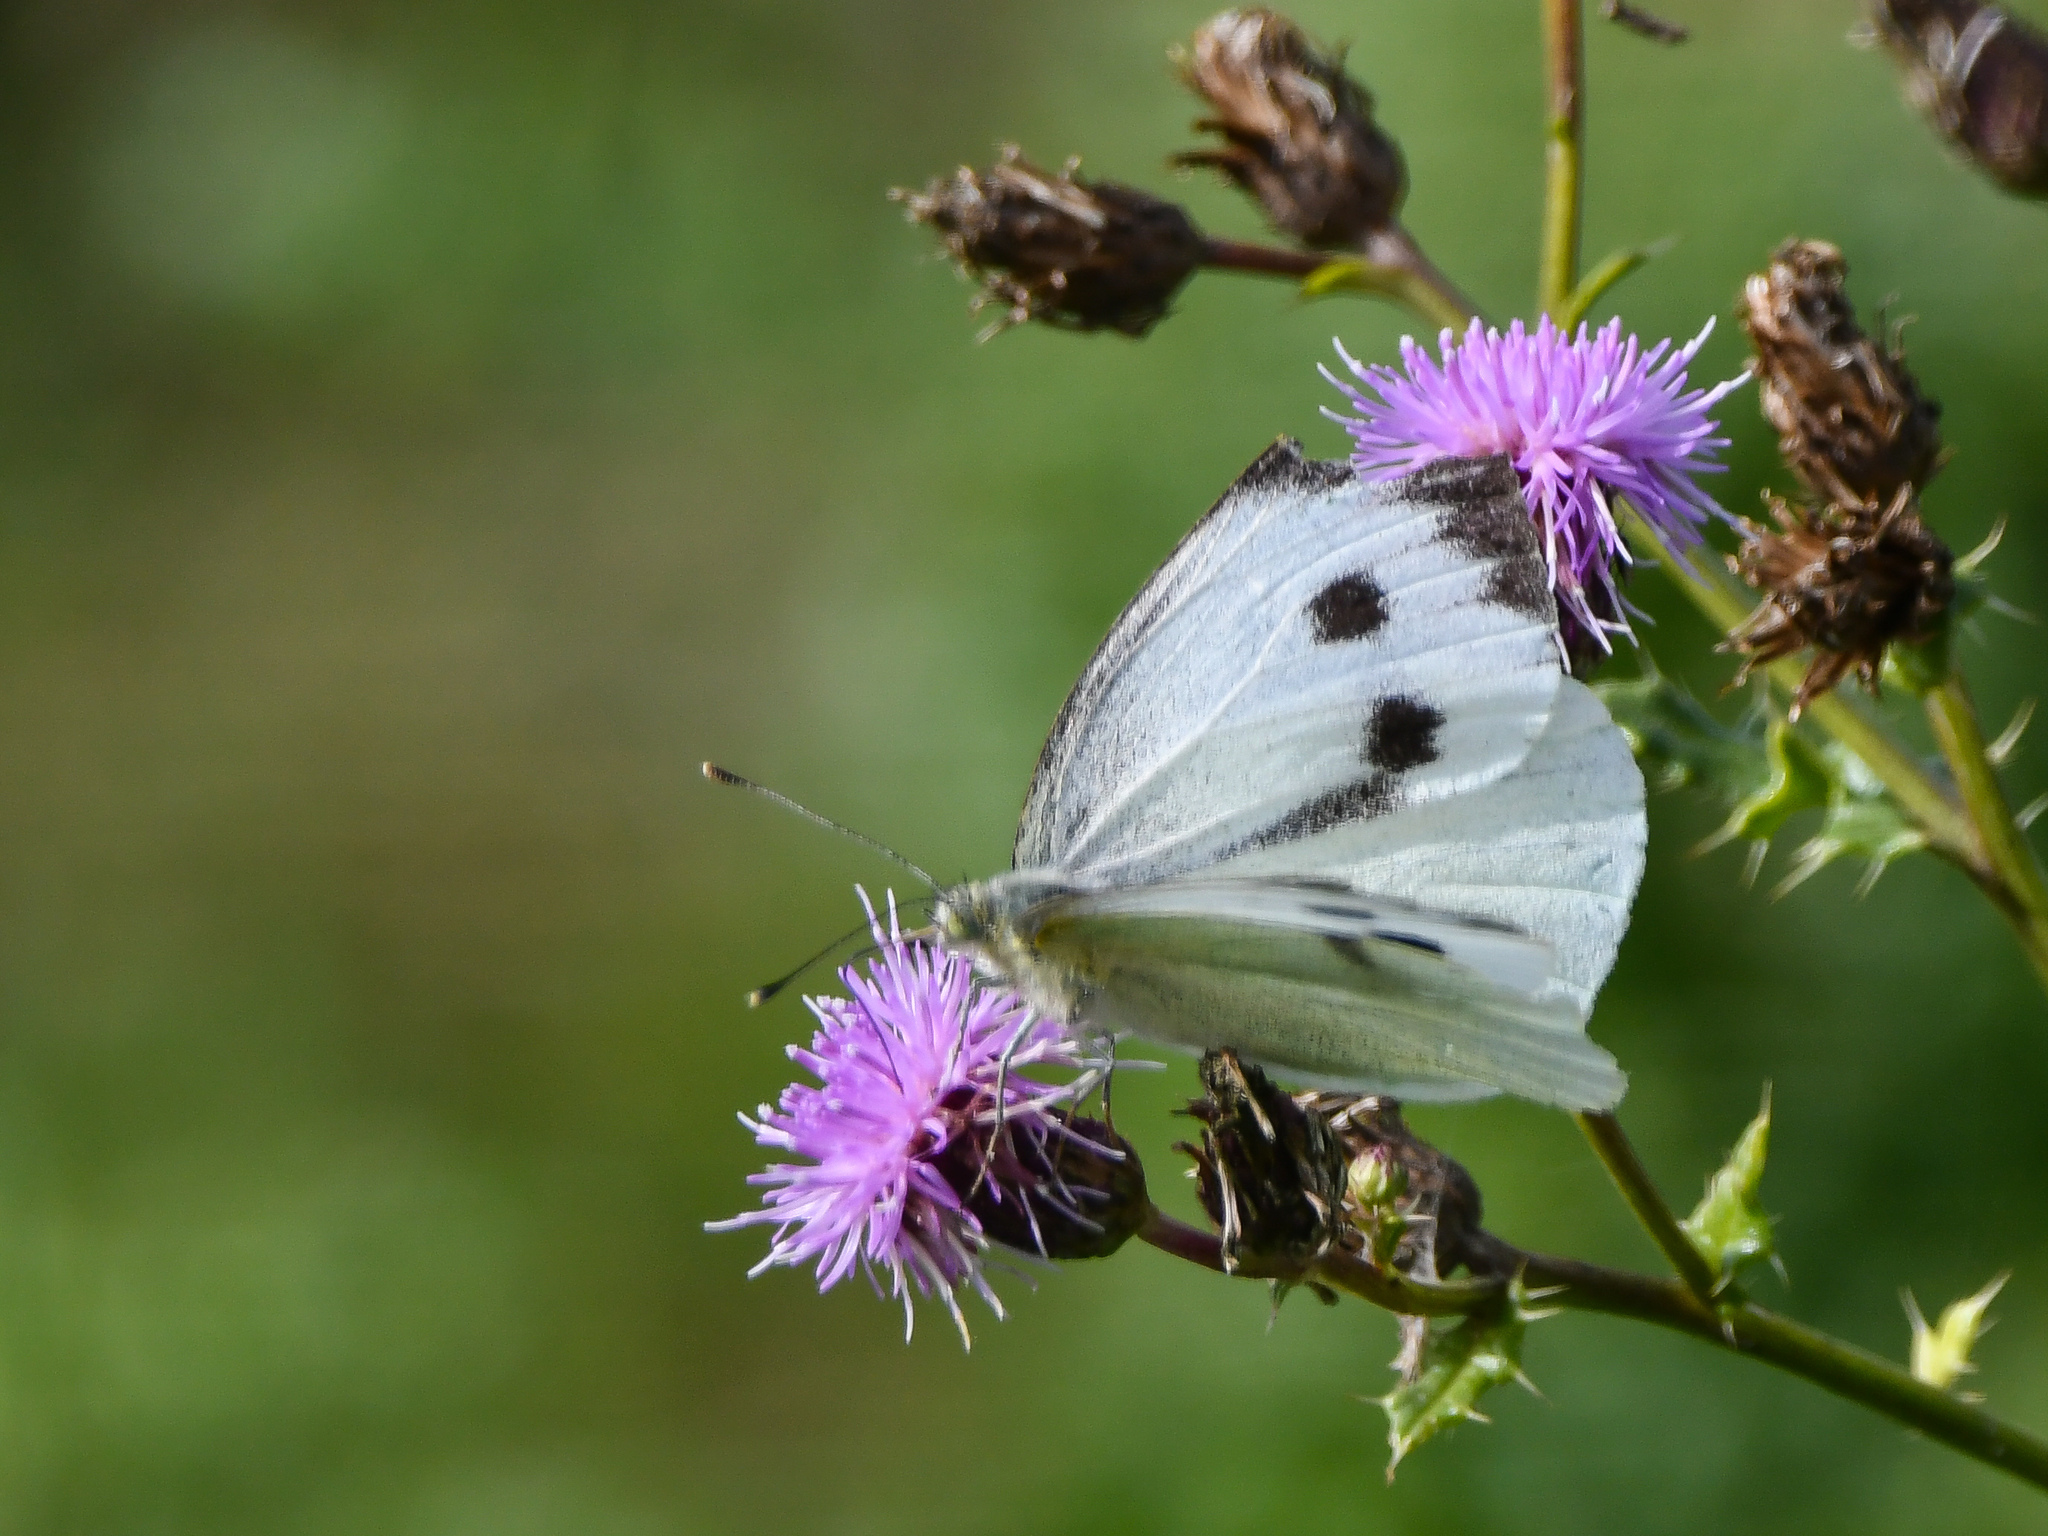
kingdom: Animalia
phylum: Arthropoda
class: Insecta
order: Lepidoptera
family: Pieridae
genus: Pieris
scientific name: Pieris brassicae
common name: Large white
